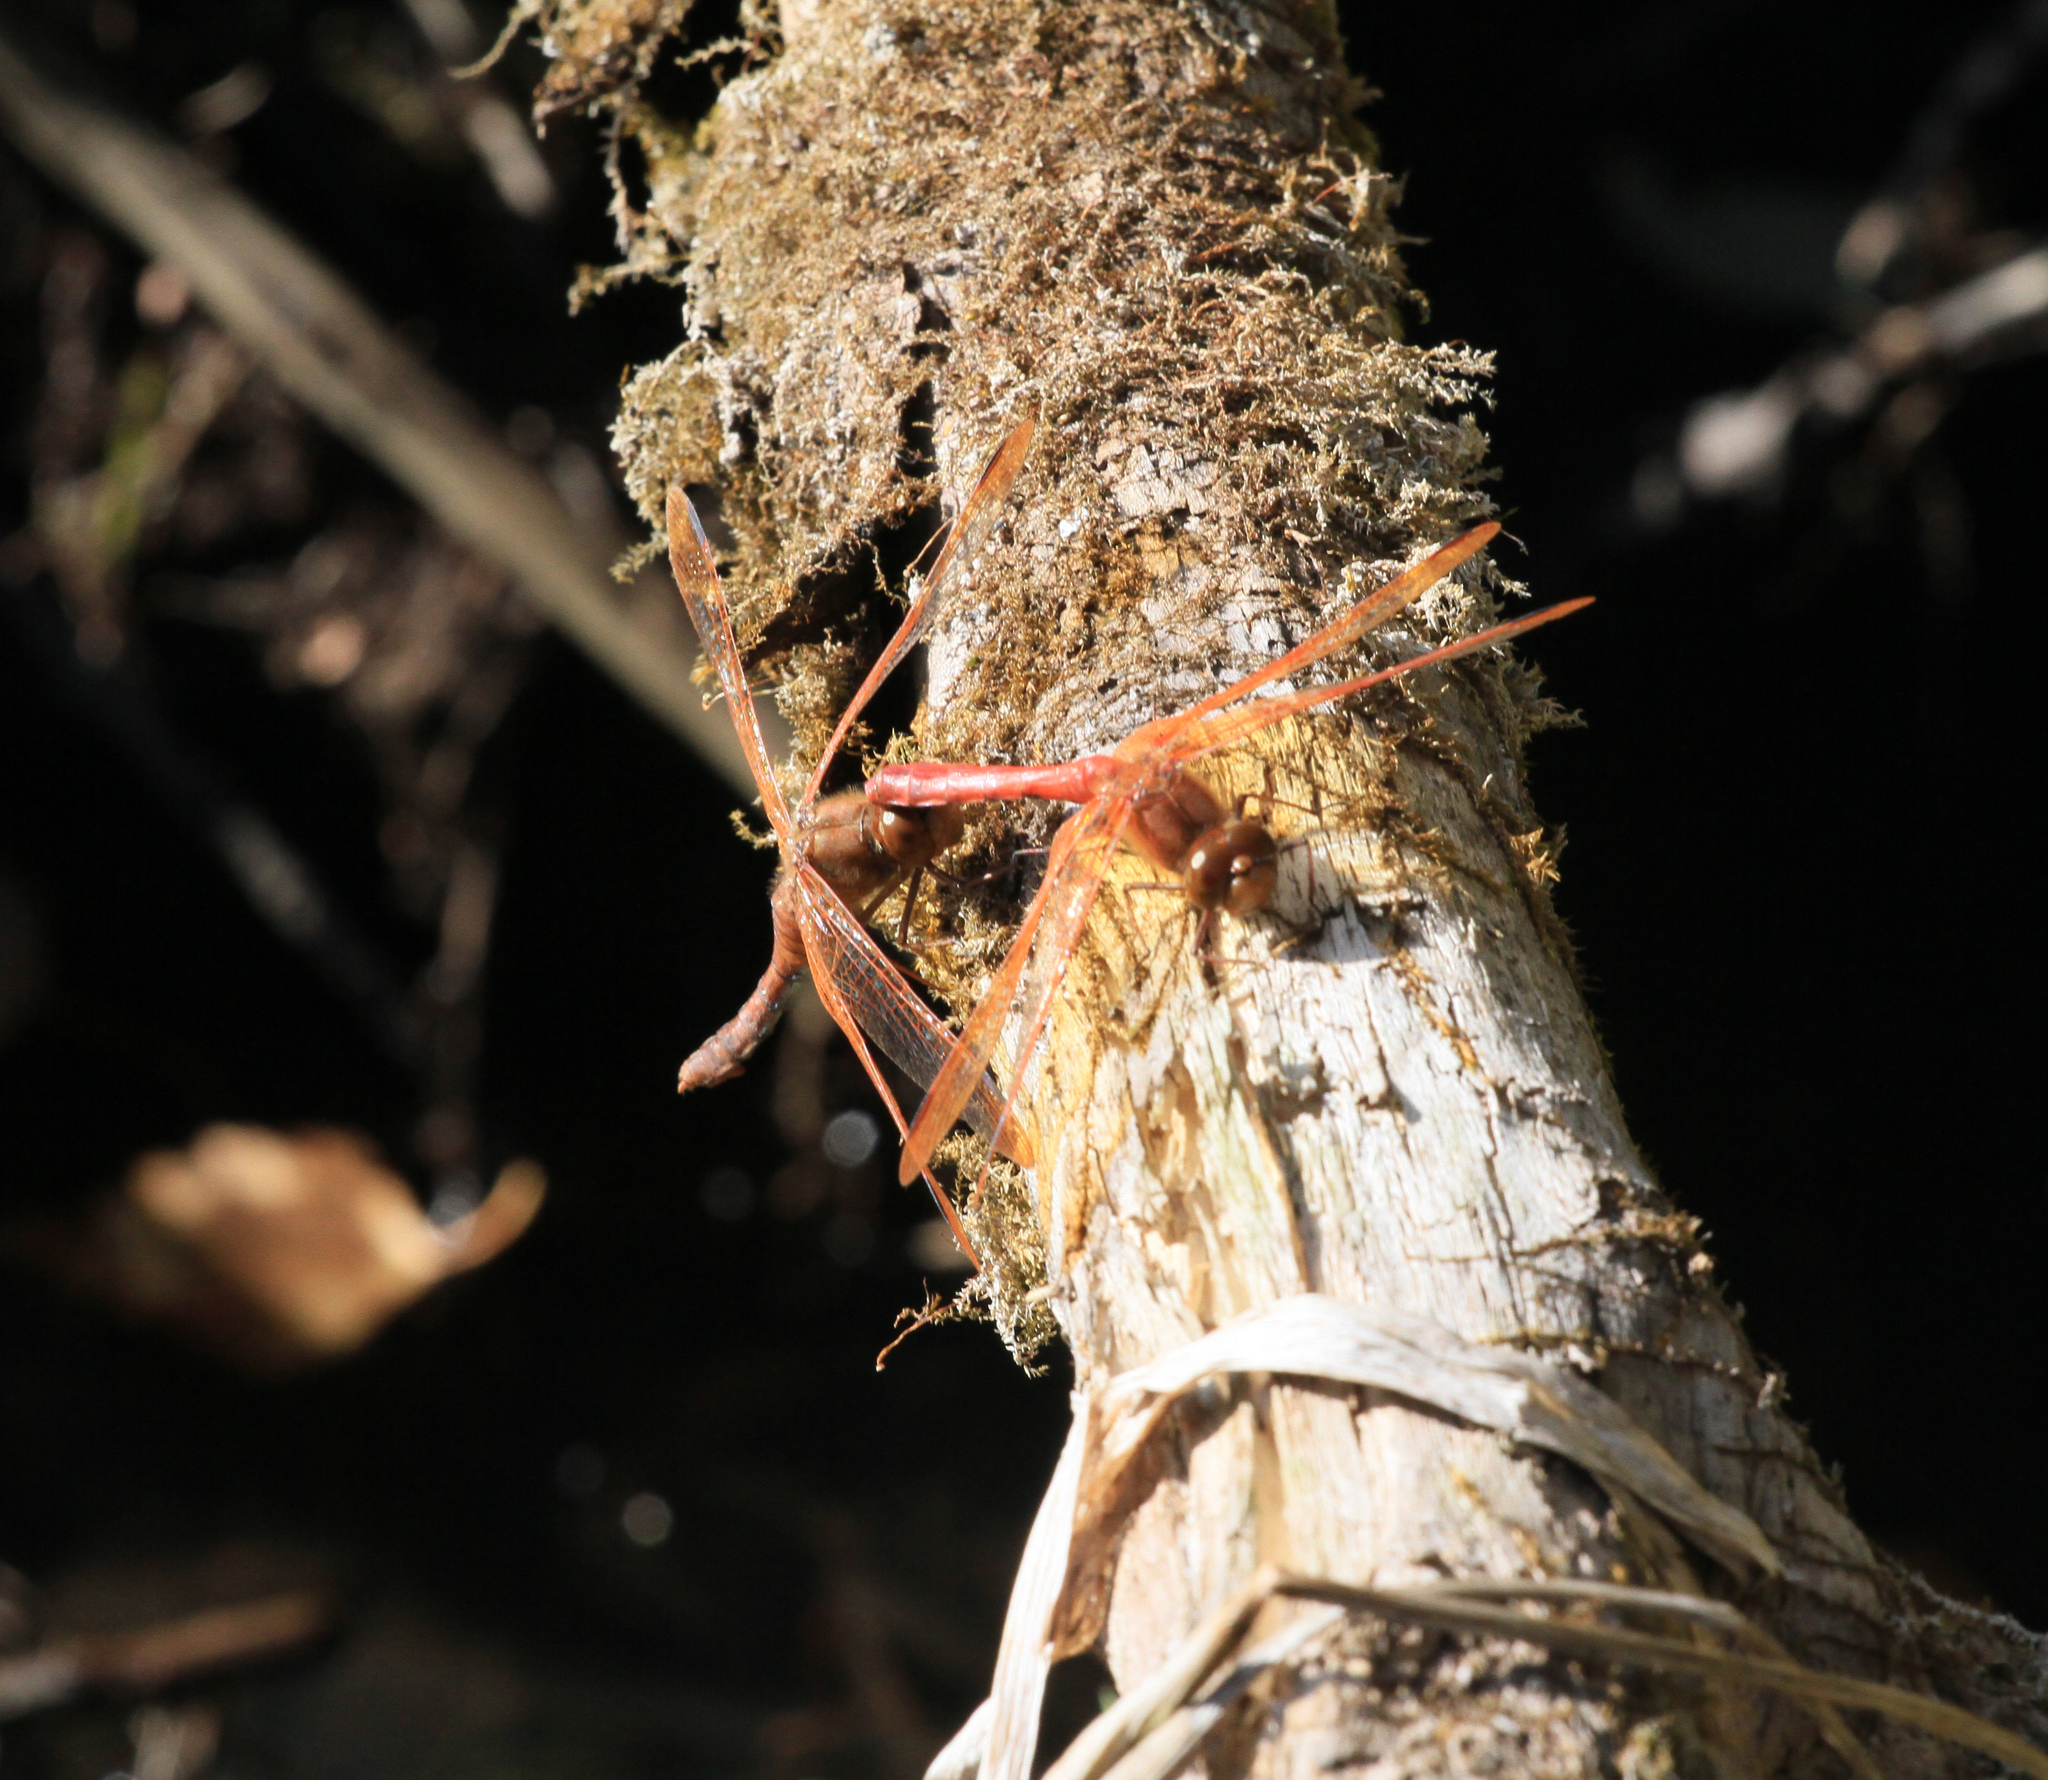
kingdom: Animalia
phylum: Arthropoda
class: Insecta
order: Odonata
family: Libellulidae
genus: Sympetrum
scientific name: Sympetrum croceolum
